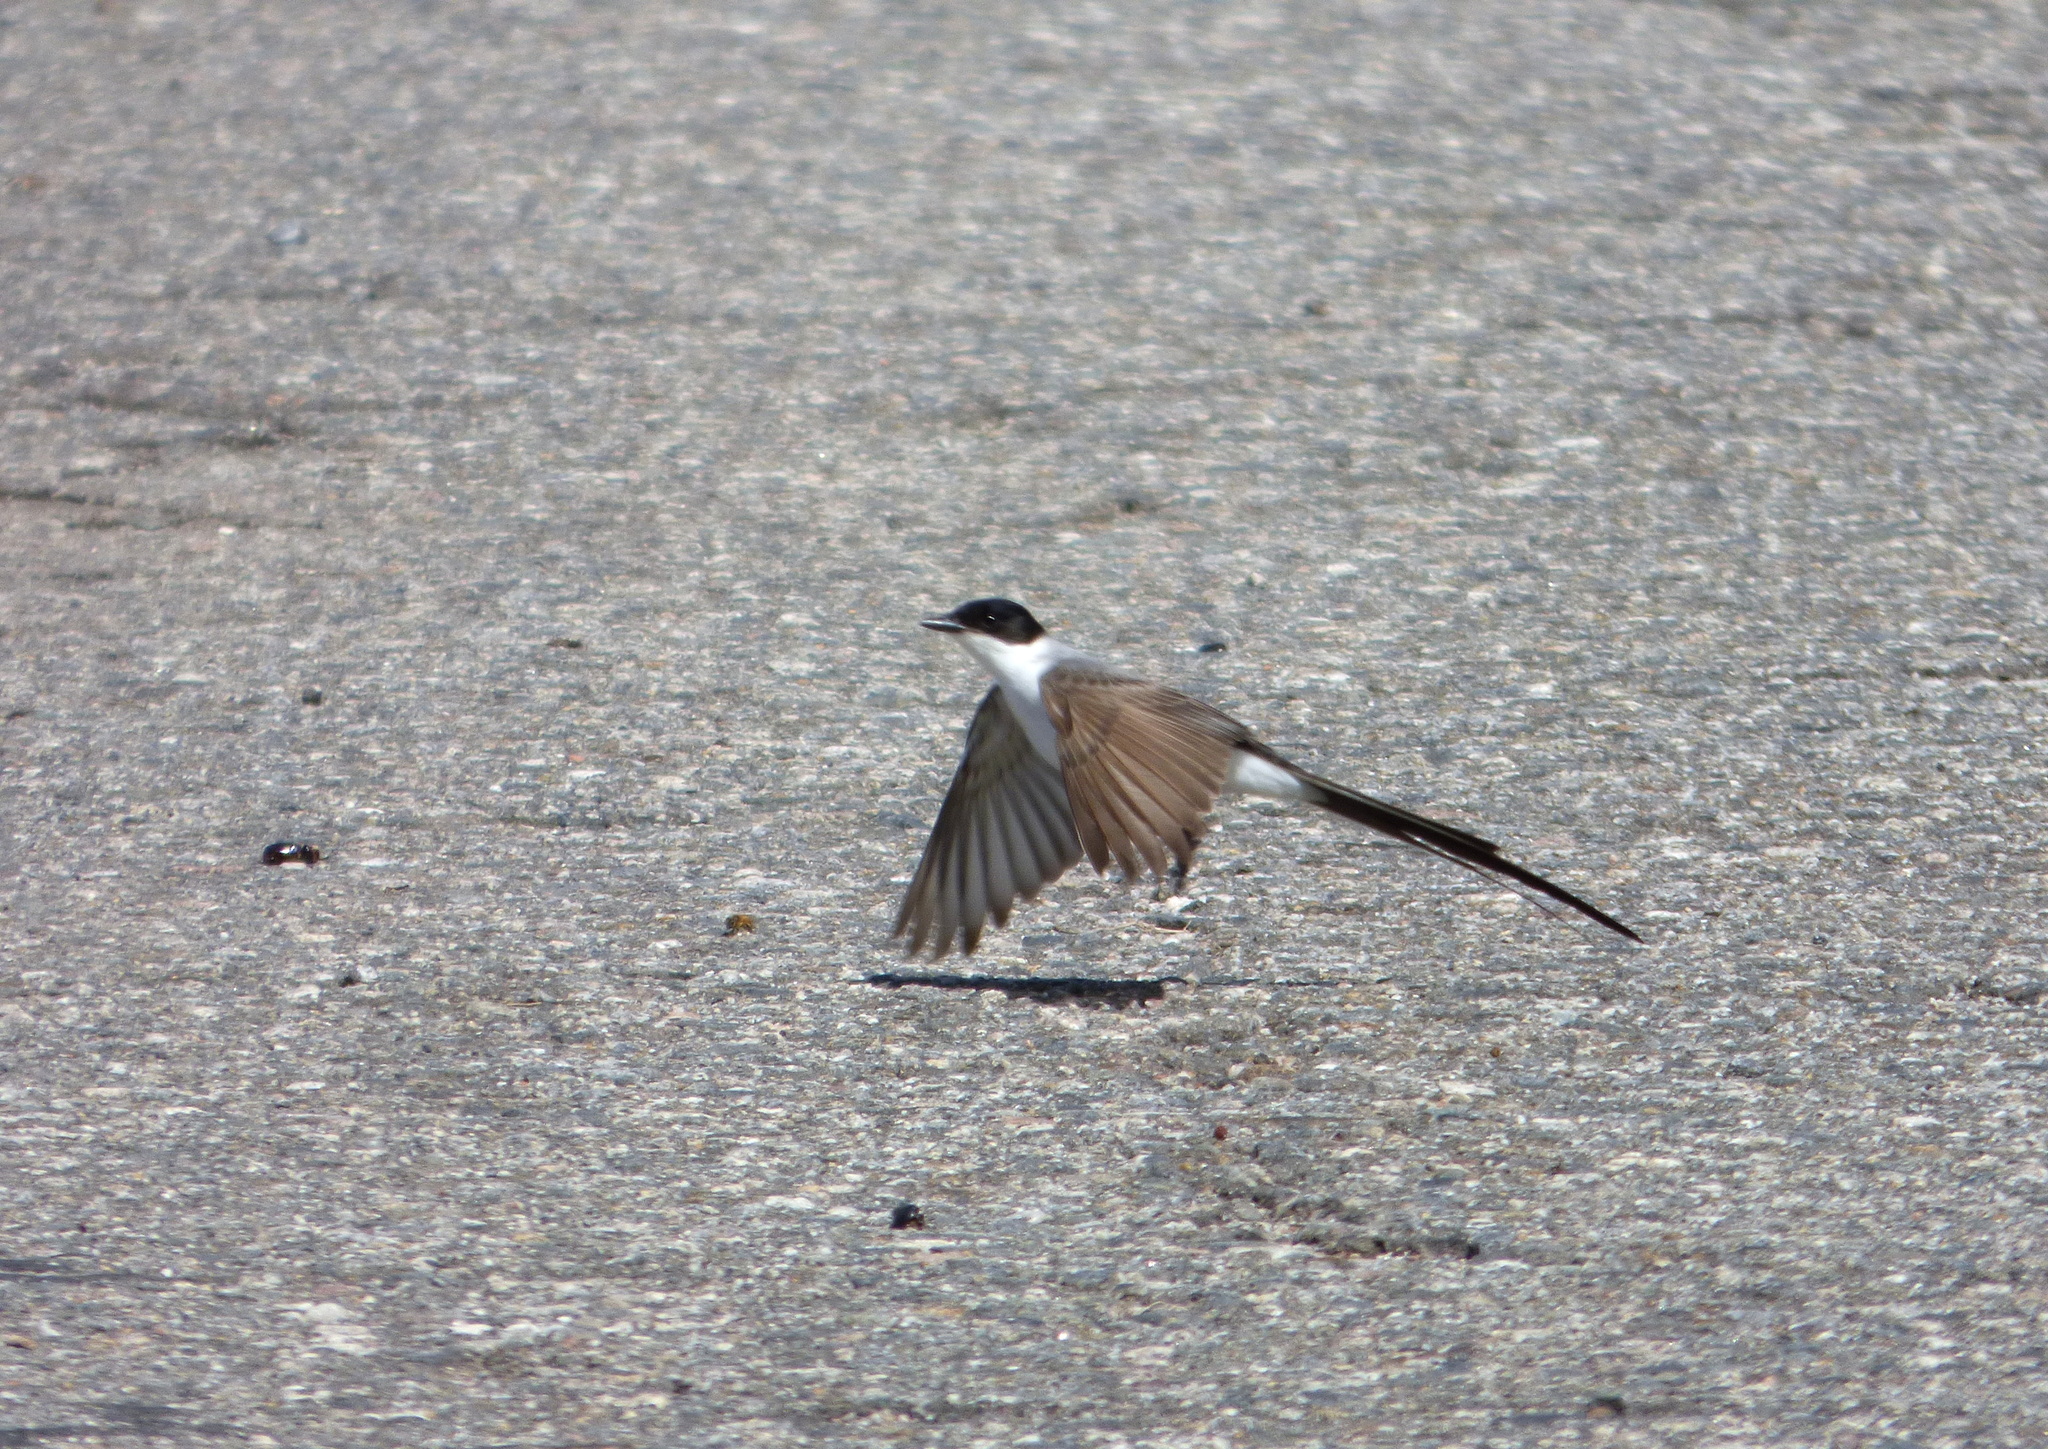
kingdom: Animalia
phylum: Chordata
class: Aves
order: Passeriformes
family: Tyrannidae
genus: Tyrannus
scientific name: Tyrannus savana
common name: Fork-tailed flycatcher
